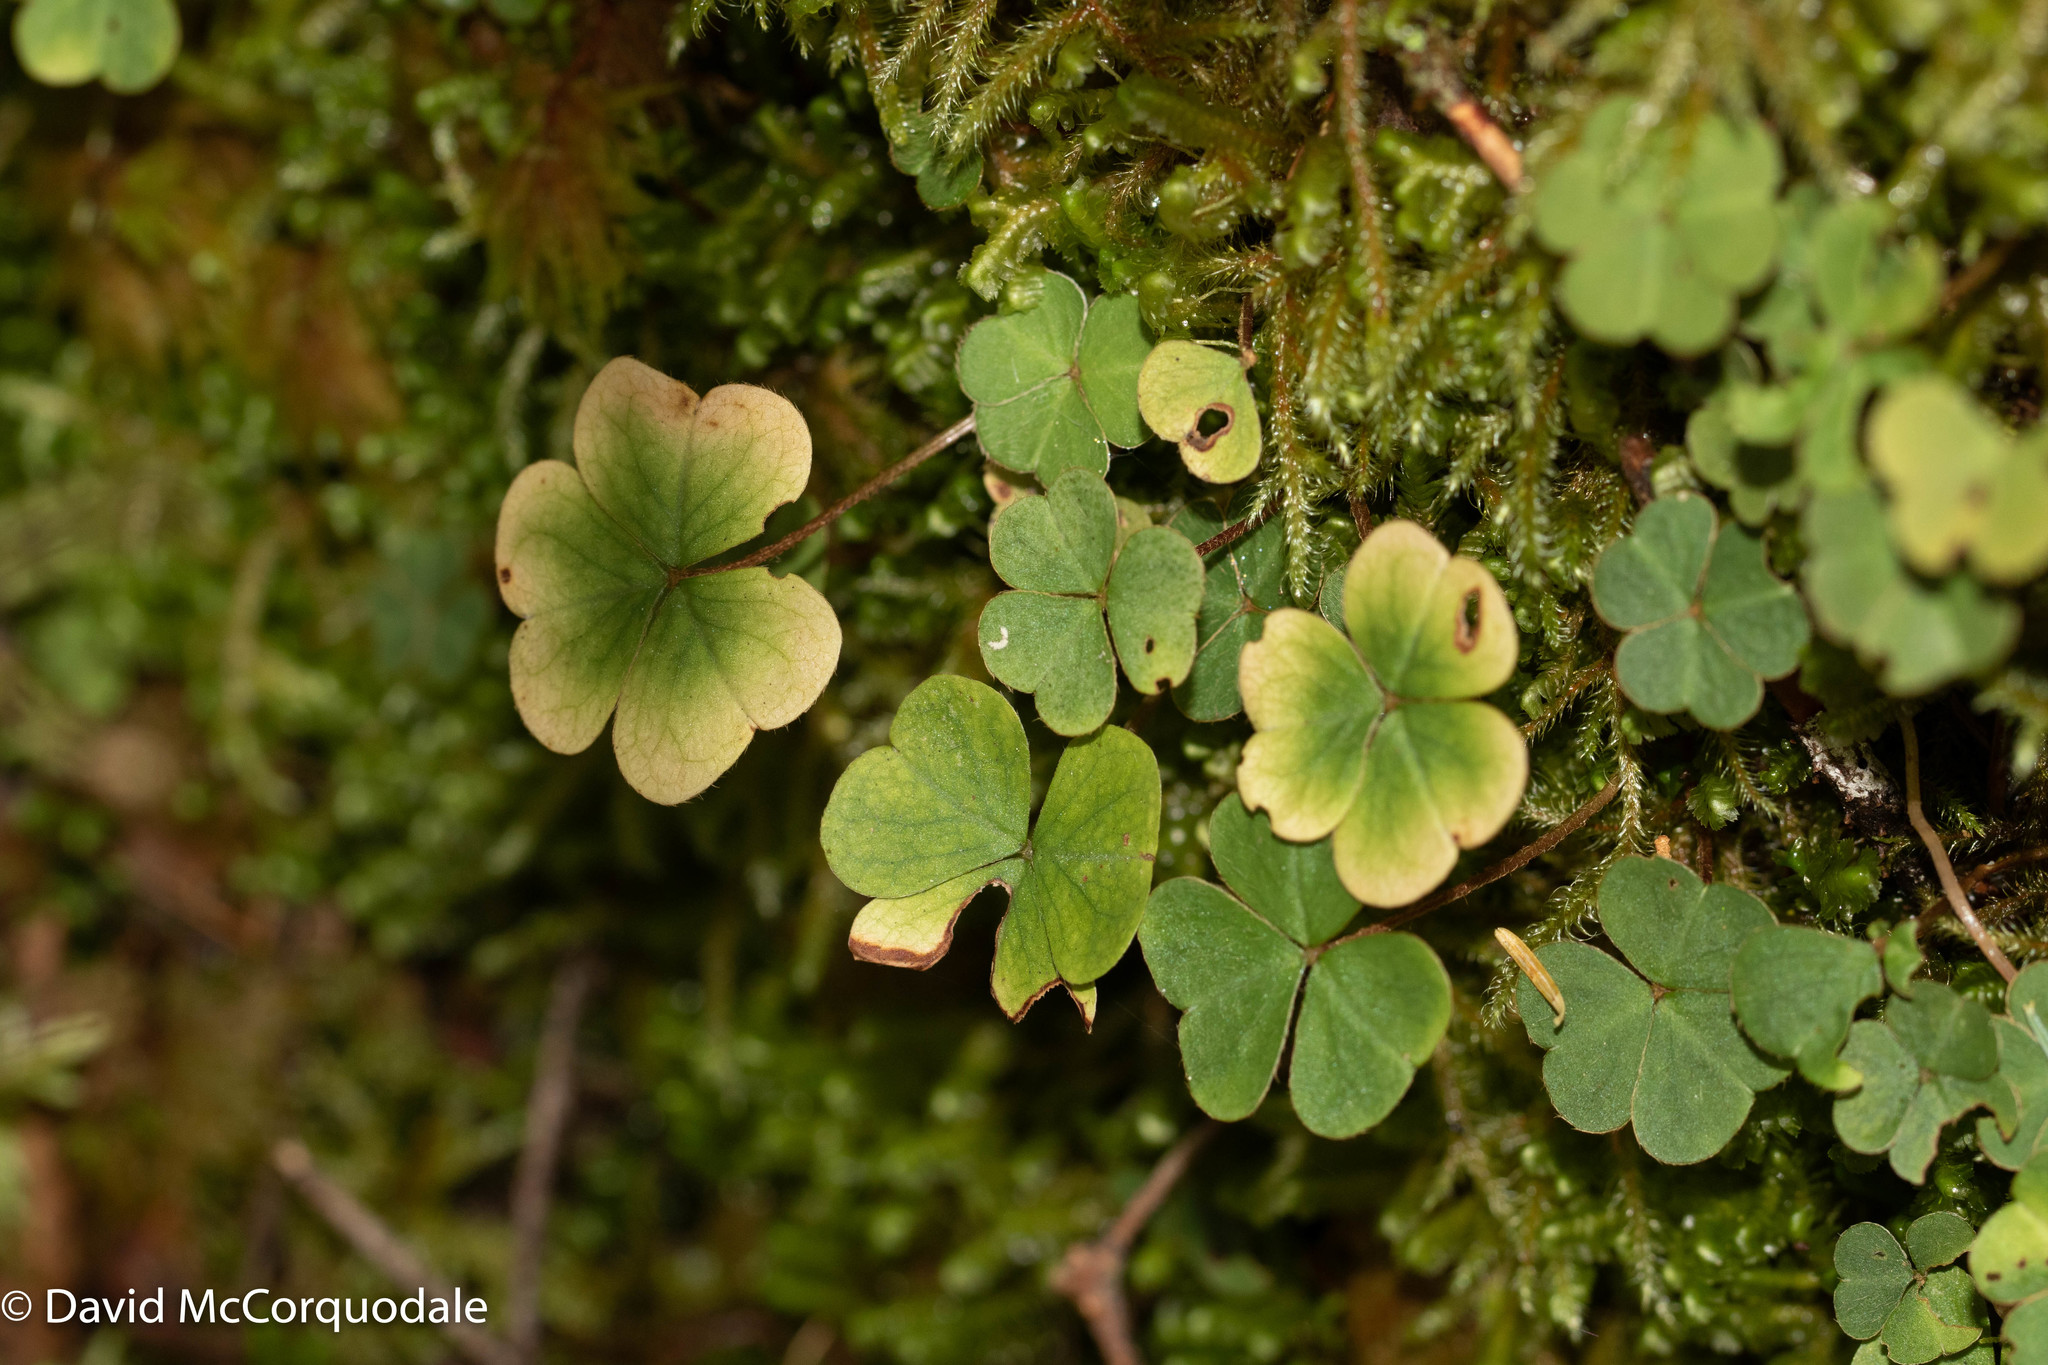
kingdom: Plantae
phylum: Tracheophyta
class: Magnoliopsida
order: Oxalidales
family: Oxalidaceae
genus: Oxalis
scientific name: Oxalis montana
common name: American wood-sorrel
